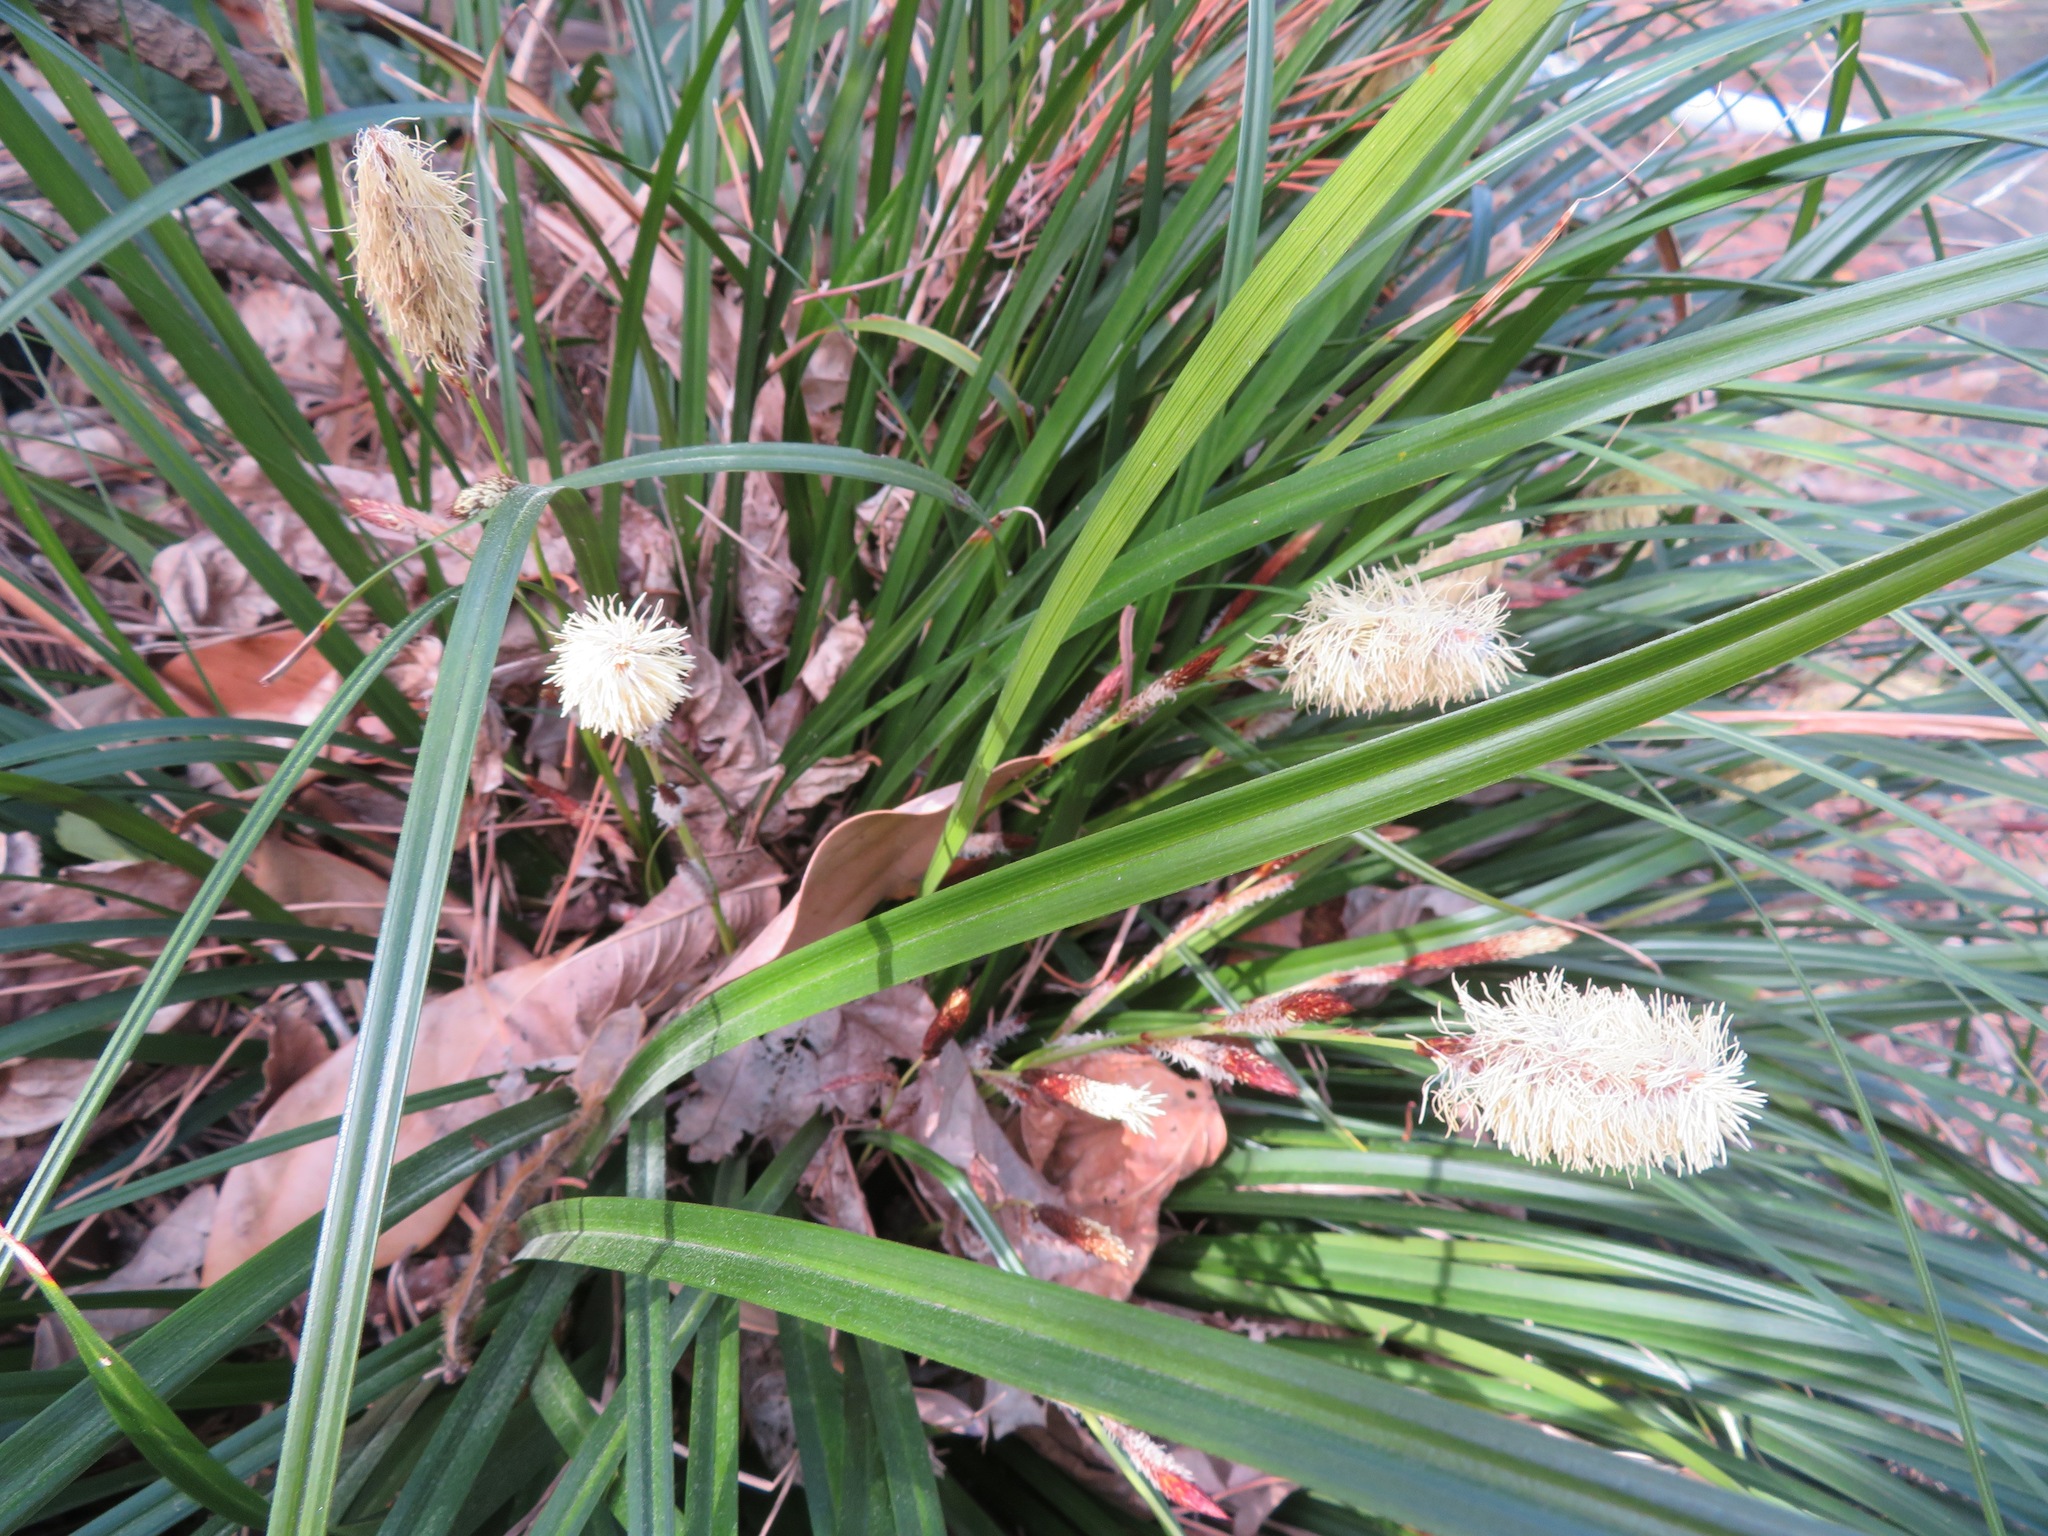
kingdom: Plantae
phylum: Tracheophyta
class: Liliopsida
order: Poales
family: Cyperaceae
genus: Carex
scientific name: Carex oshimensis
